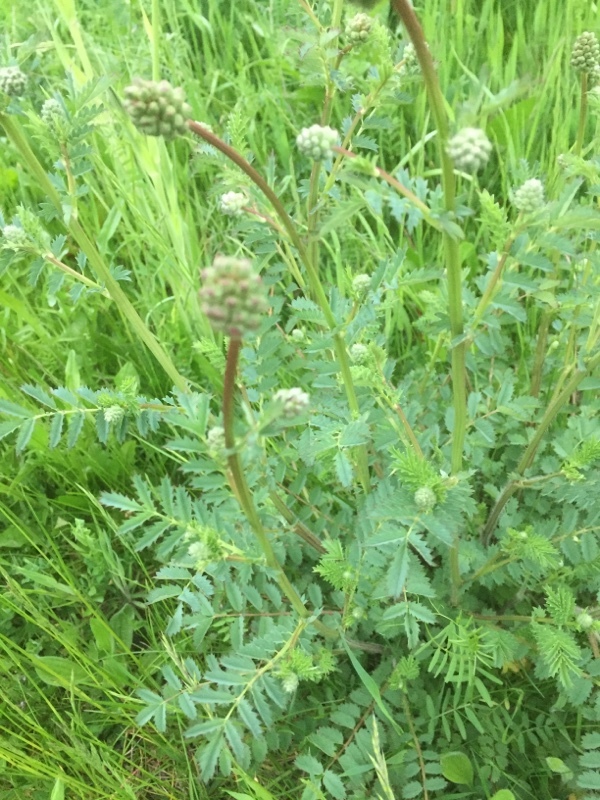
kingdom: Plantae
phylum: Tracheophyta
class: Magnoliopsida
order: Rosales
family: Rosaceae
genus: Poterium
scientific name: Poterium sanguisorba
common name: Salad burnet
